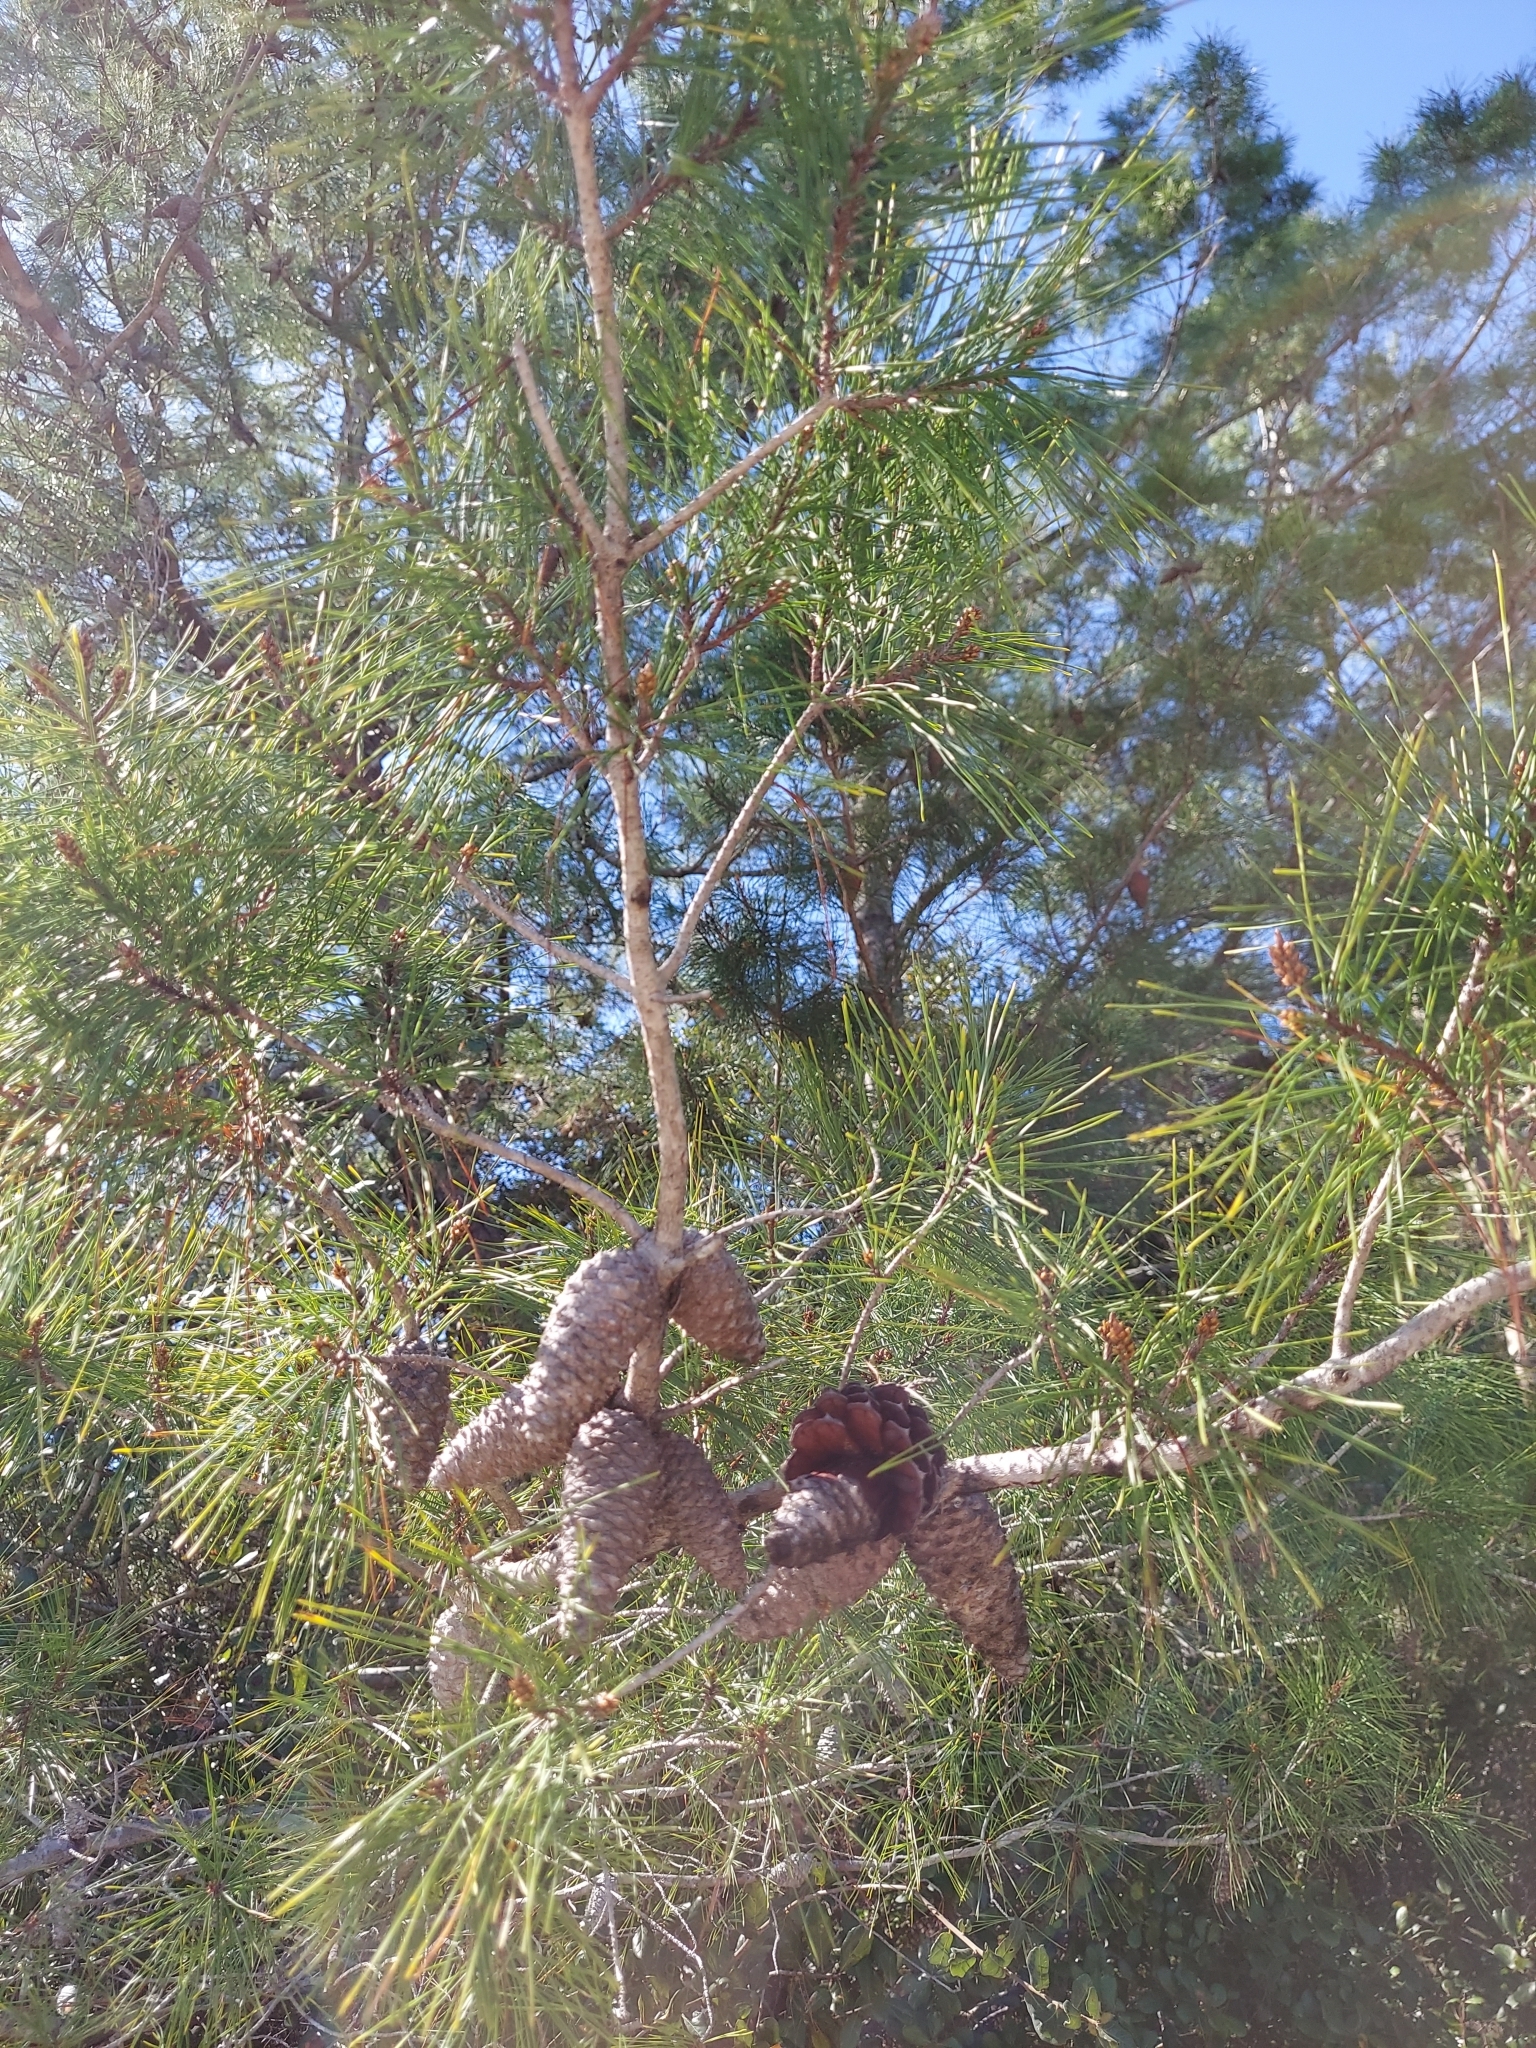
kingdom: Plantae
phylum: Tracheophyta
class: Pinopsida
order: Pinales
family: Pinaceae
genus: Pinus
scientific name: Pinus clausa
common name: Sand pine
